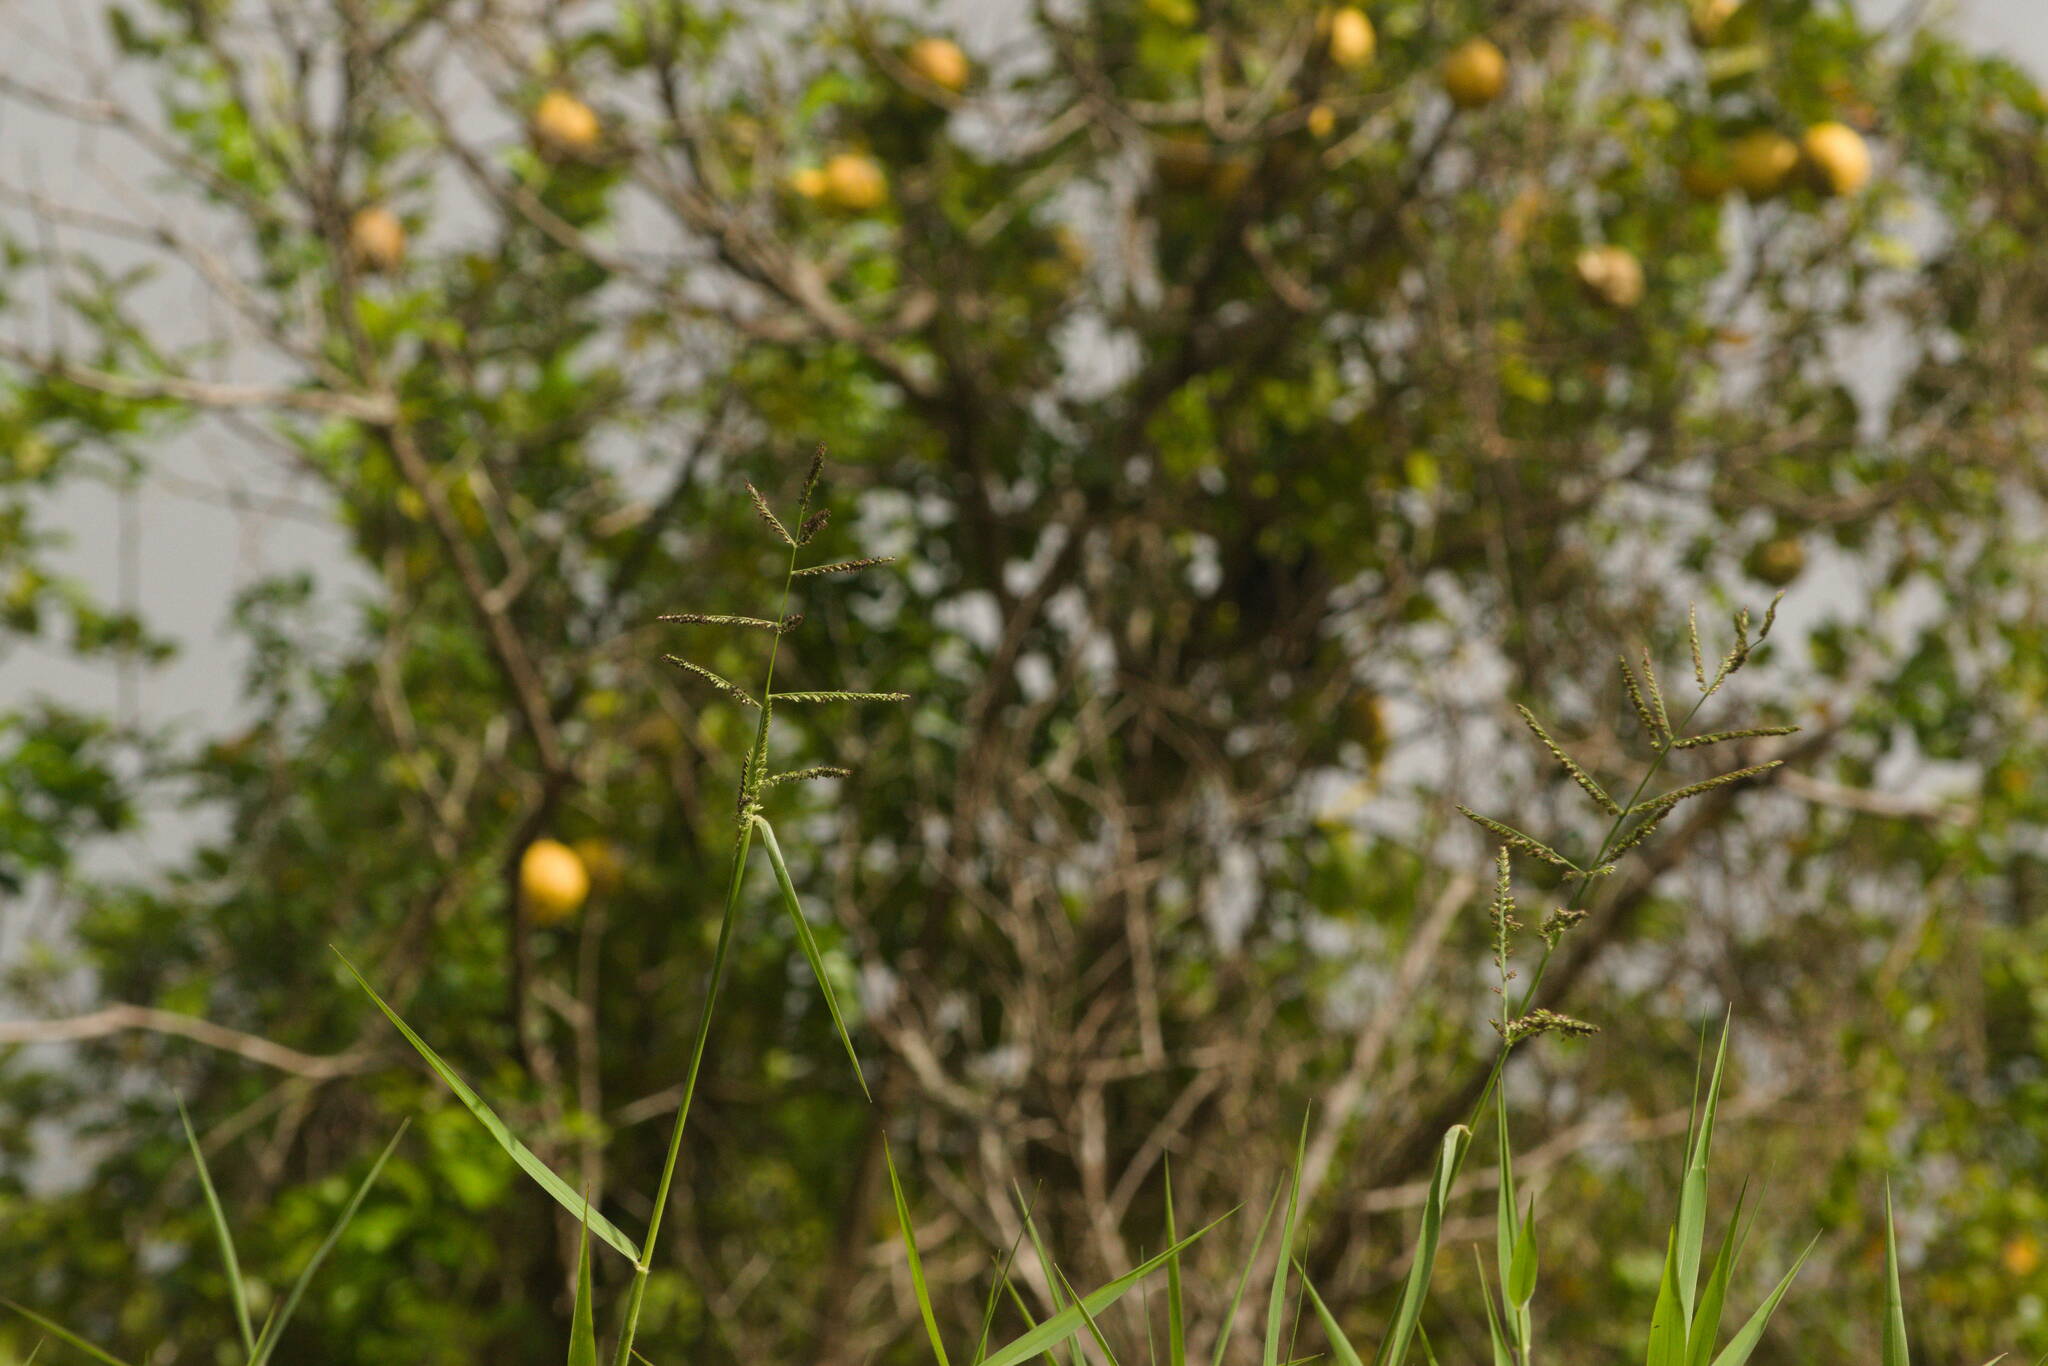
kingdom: Plantae
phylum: Tracheophyta
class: Liliopsida
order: Poales
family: Poaceae
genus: Urochloa
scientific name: Urochloa mutica
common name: Para grass
